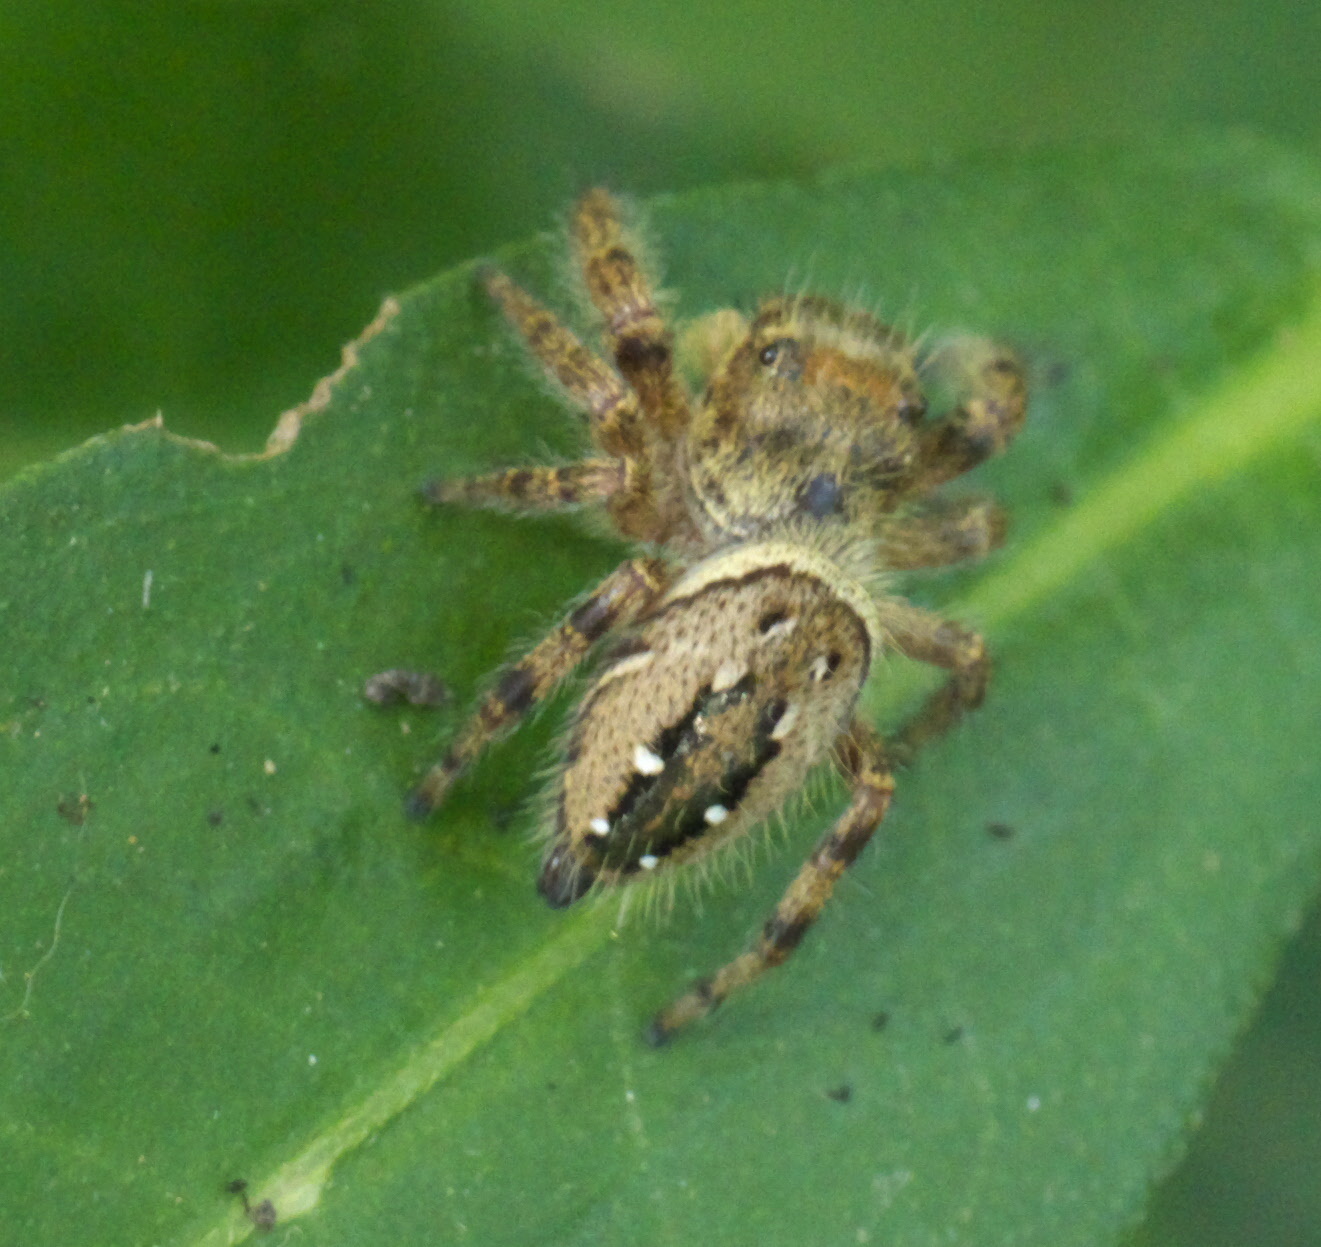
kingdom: Animalia
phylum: Arthropoda
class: Arachnida
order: Araneae
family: Salticidae
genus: Phidippus
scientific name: Phidippus clarus
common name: Brilliant jumping spider
